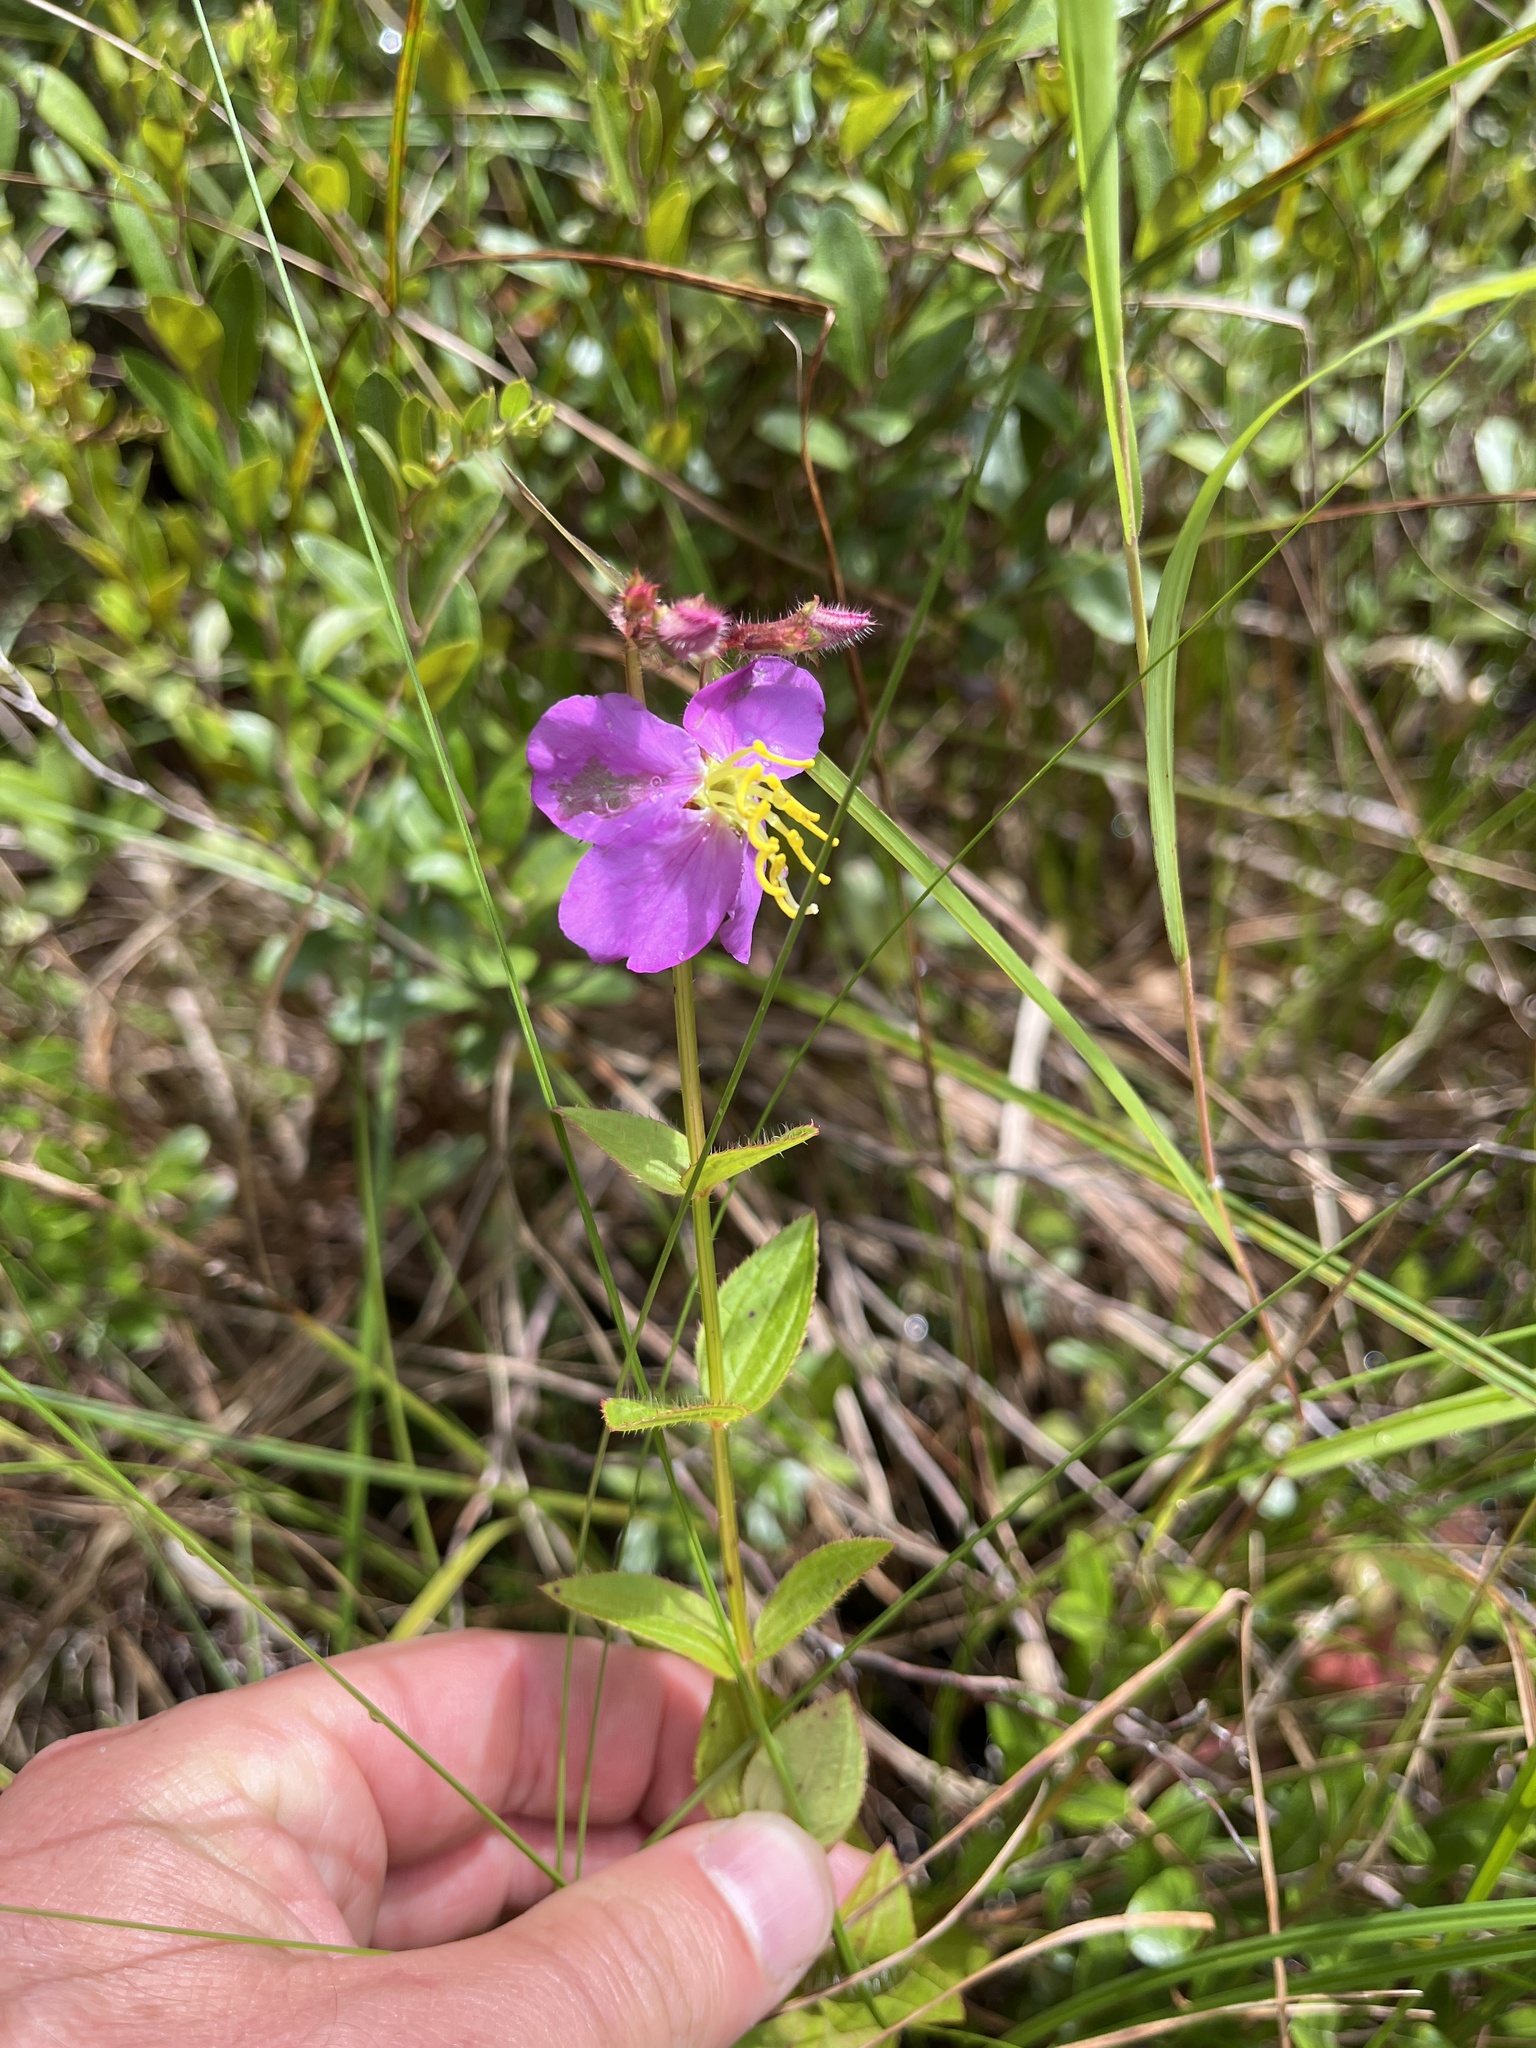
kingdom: Plantae
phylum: Tracheophyta
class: Magnoliopsida
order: Myrtales
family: Melastomataceae
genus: Rhexia
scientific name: Rhexia virginica
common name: Common meadow beauty
